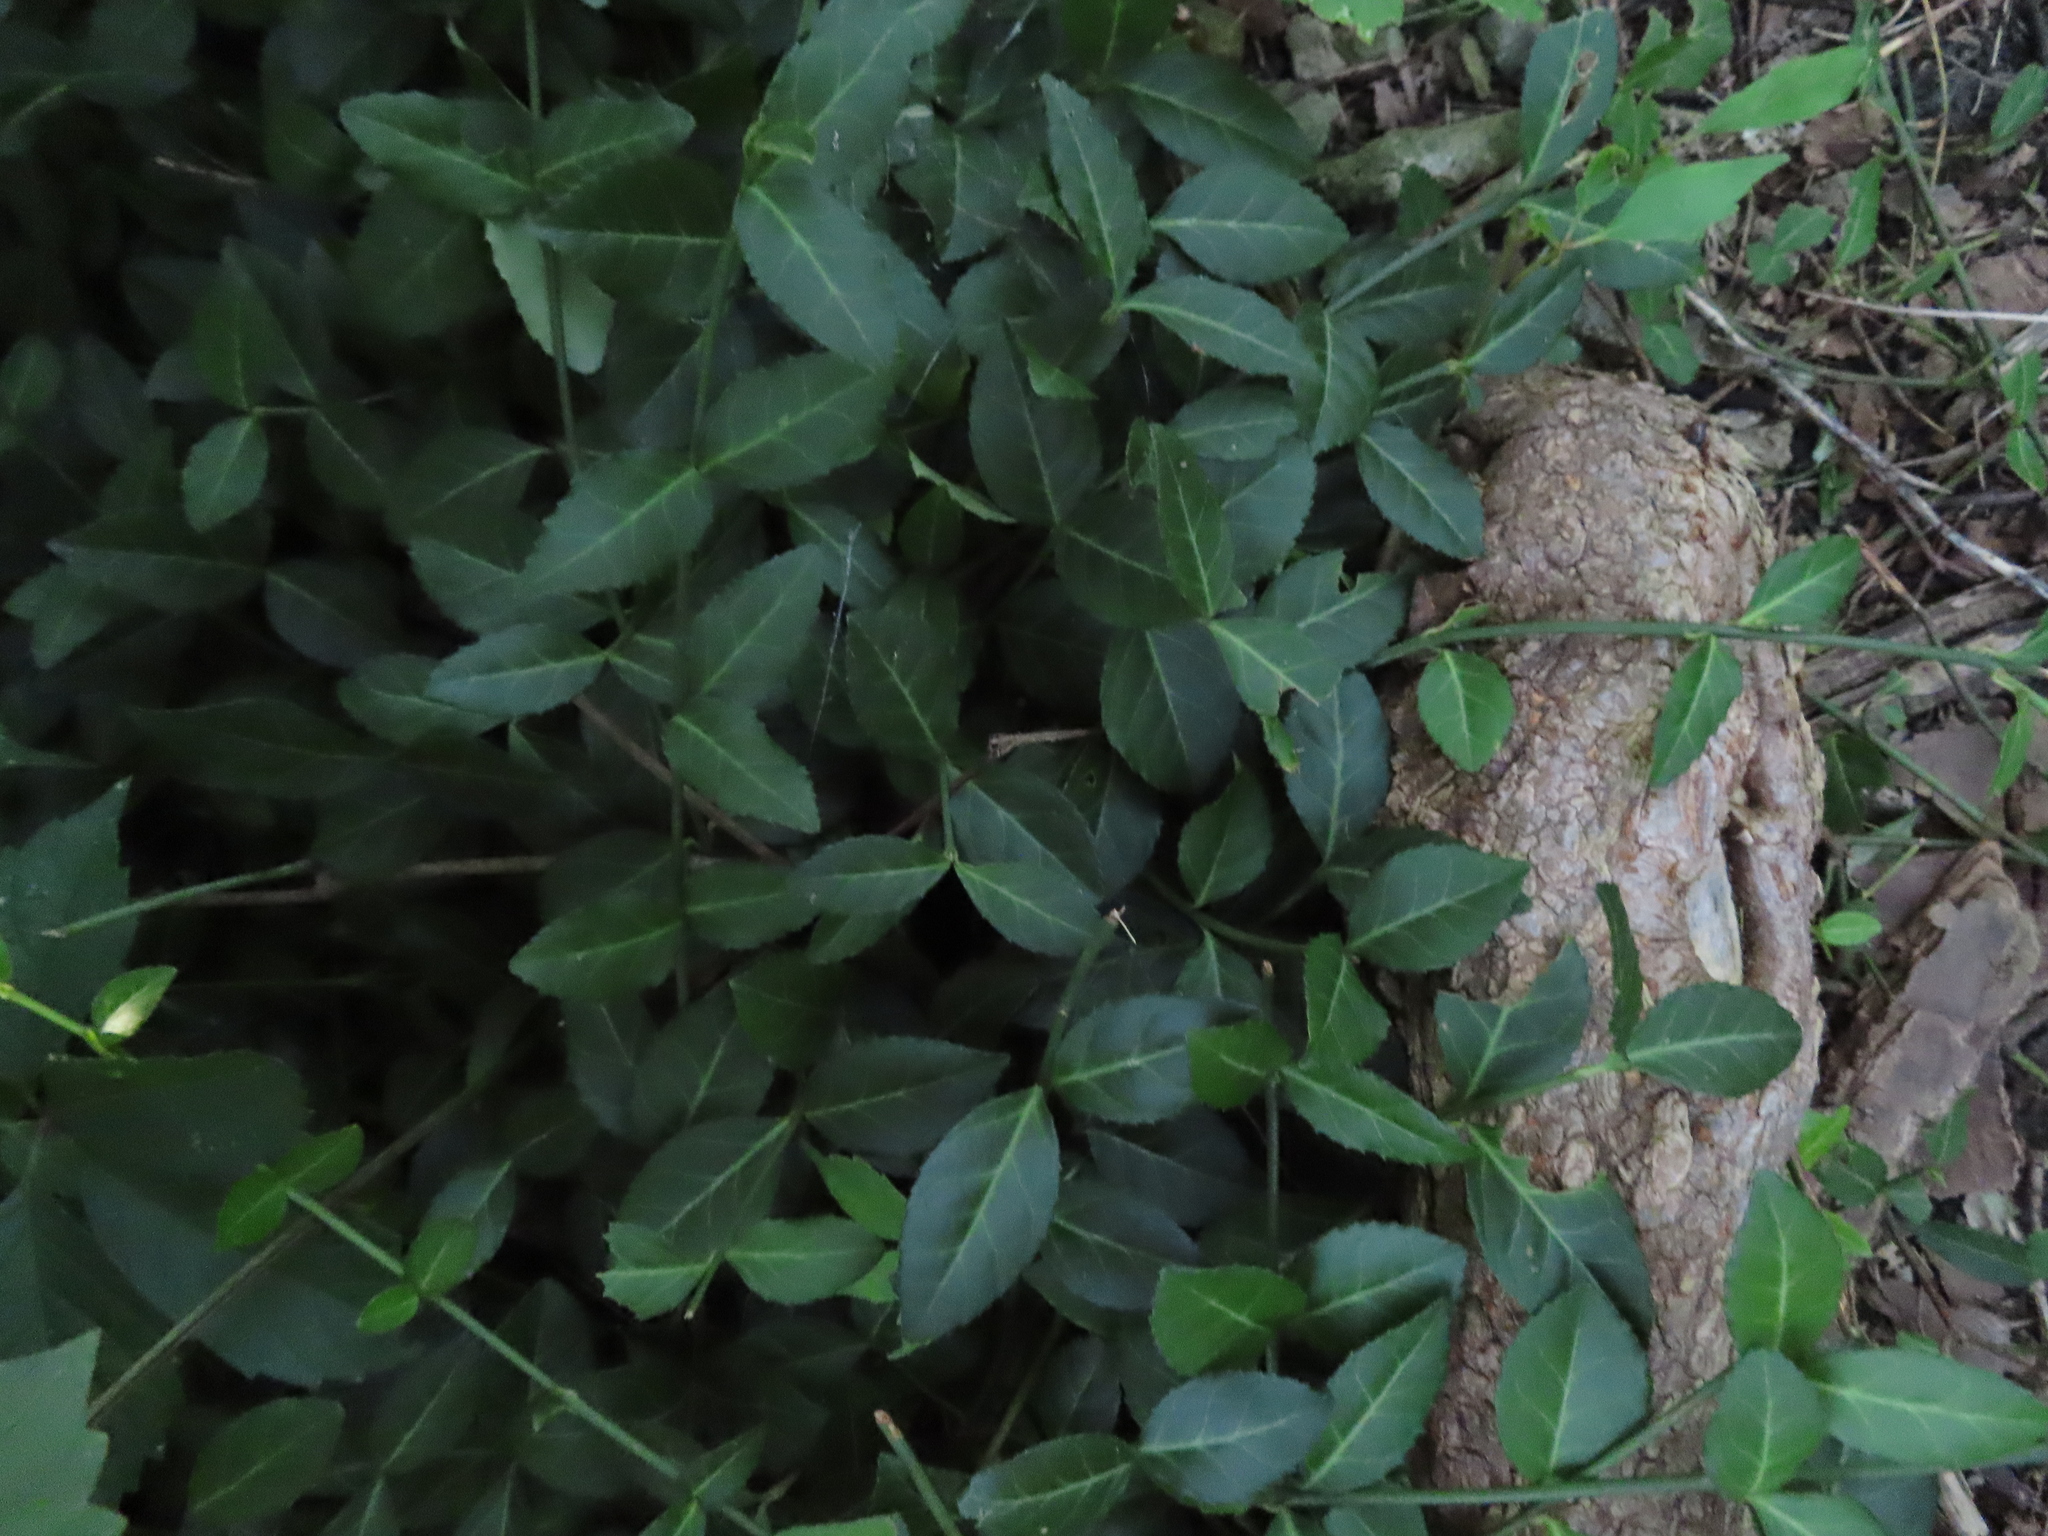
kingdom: Plantae
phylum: Tracheophyta
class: Magnoliopsida
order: Celastrales
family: Celastraceae
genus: Euonymus
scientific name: Euonymus fortunei
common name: Climbing euonymus
